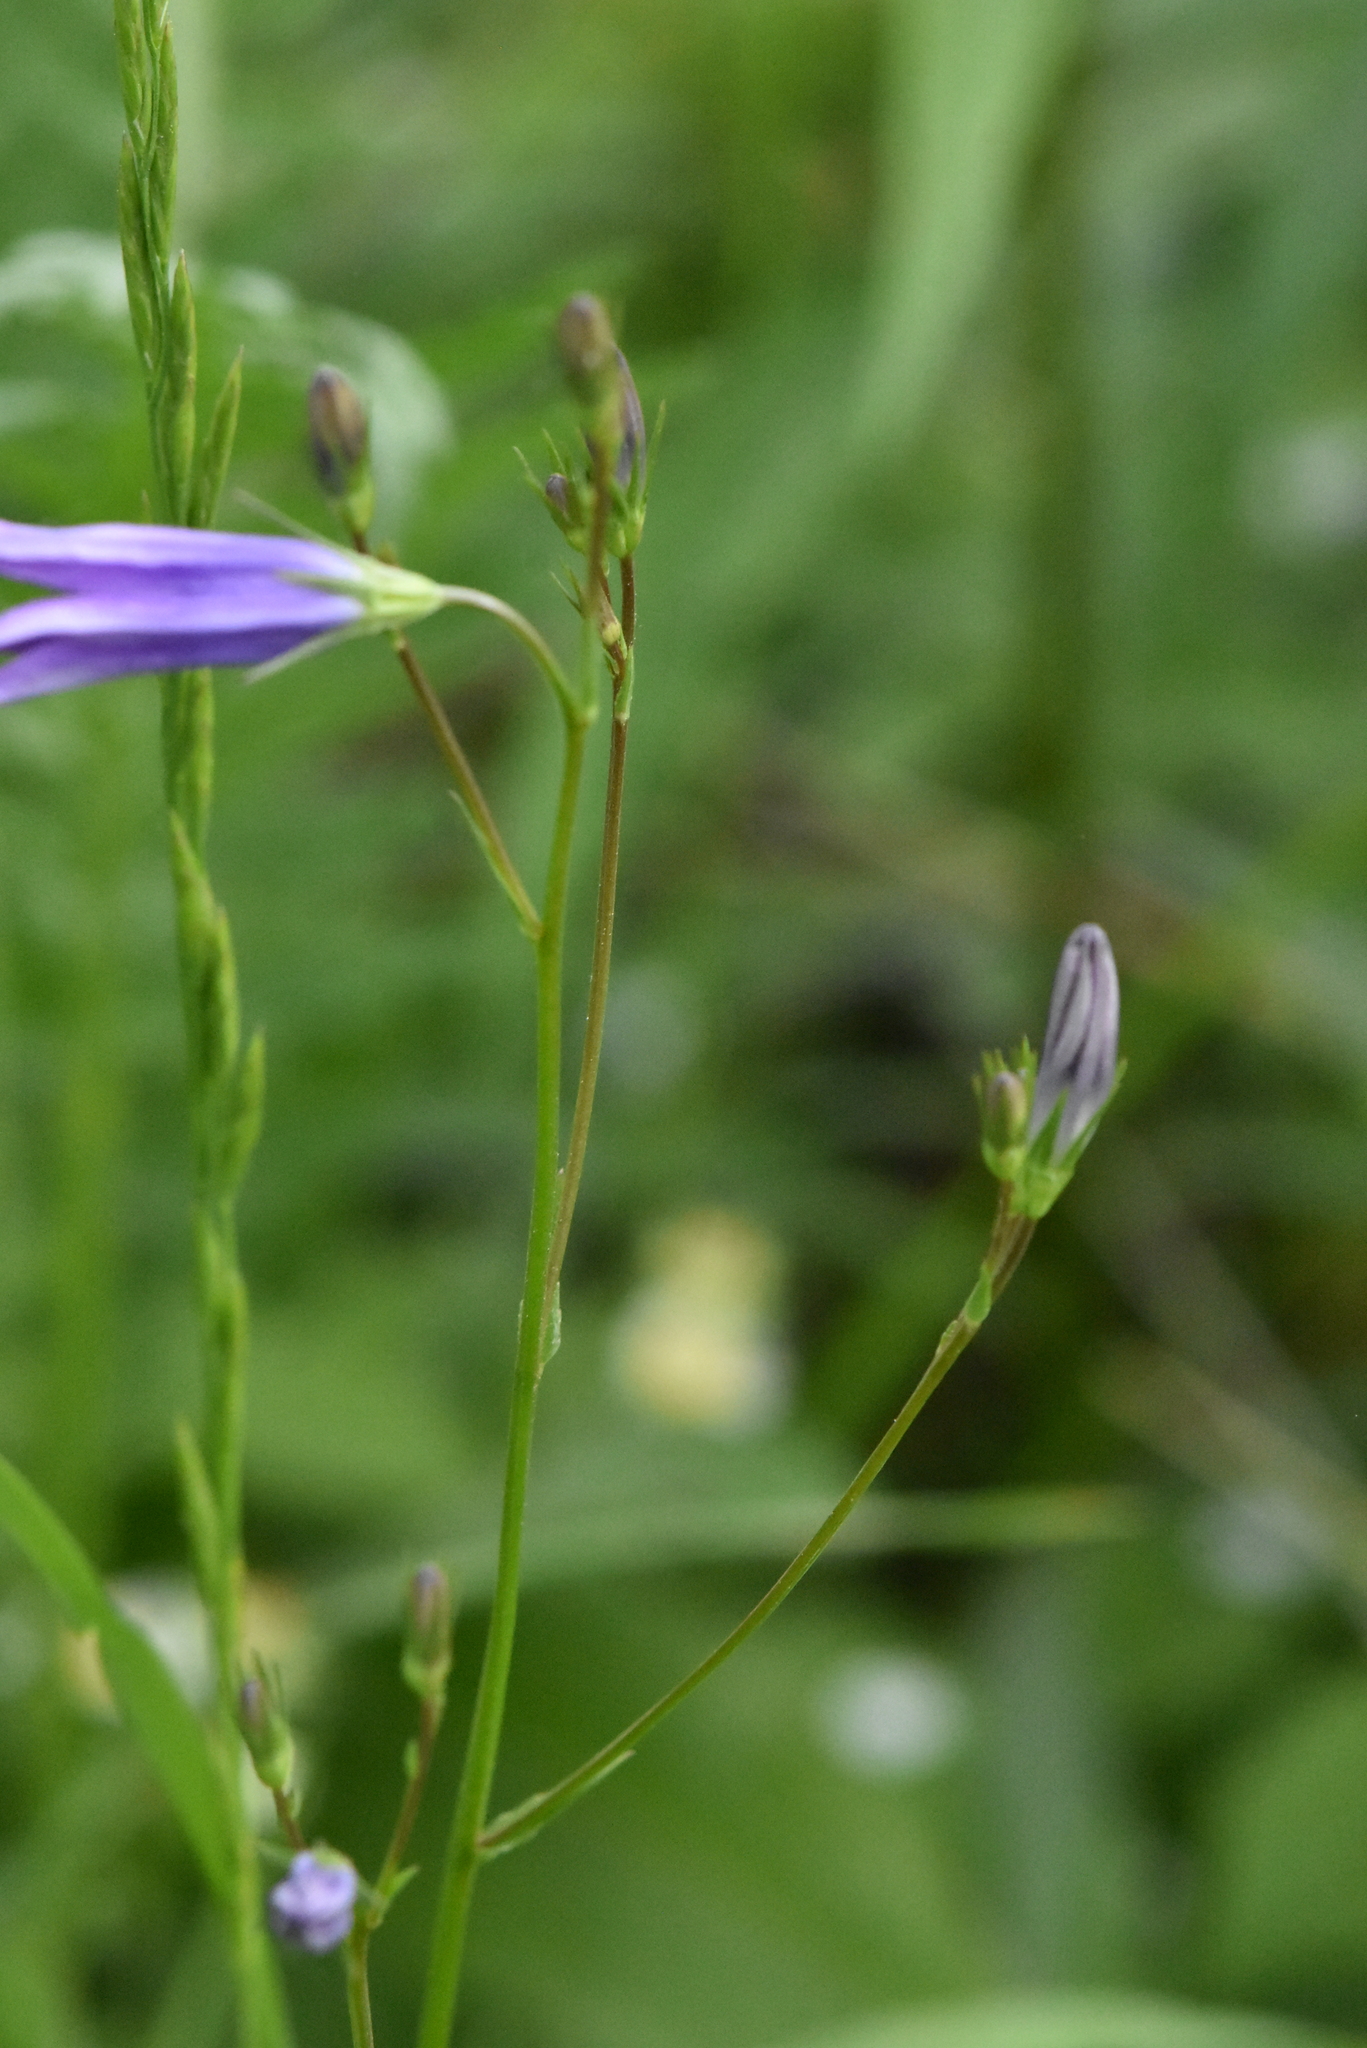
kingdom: Plantae
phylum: Tracheophyta
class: Magnoliopsida
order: Asterales
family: Campanulaceae
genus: Campanula
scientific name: Campanula patula
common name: Spreading bellflower
